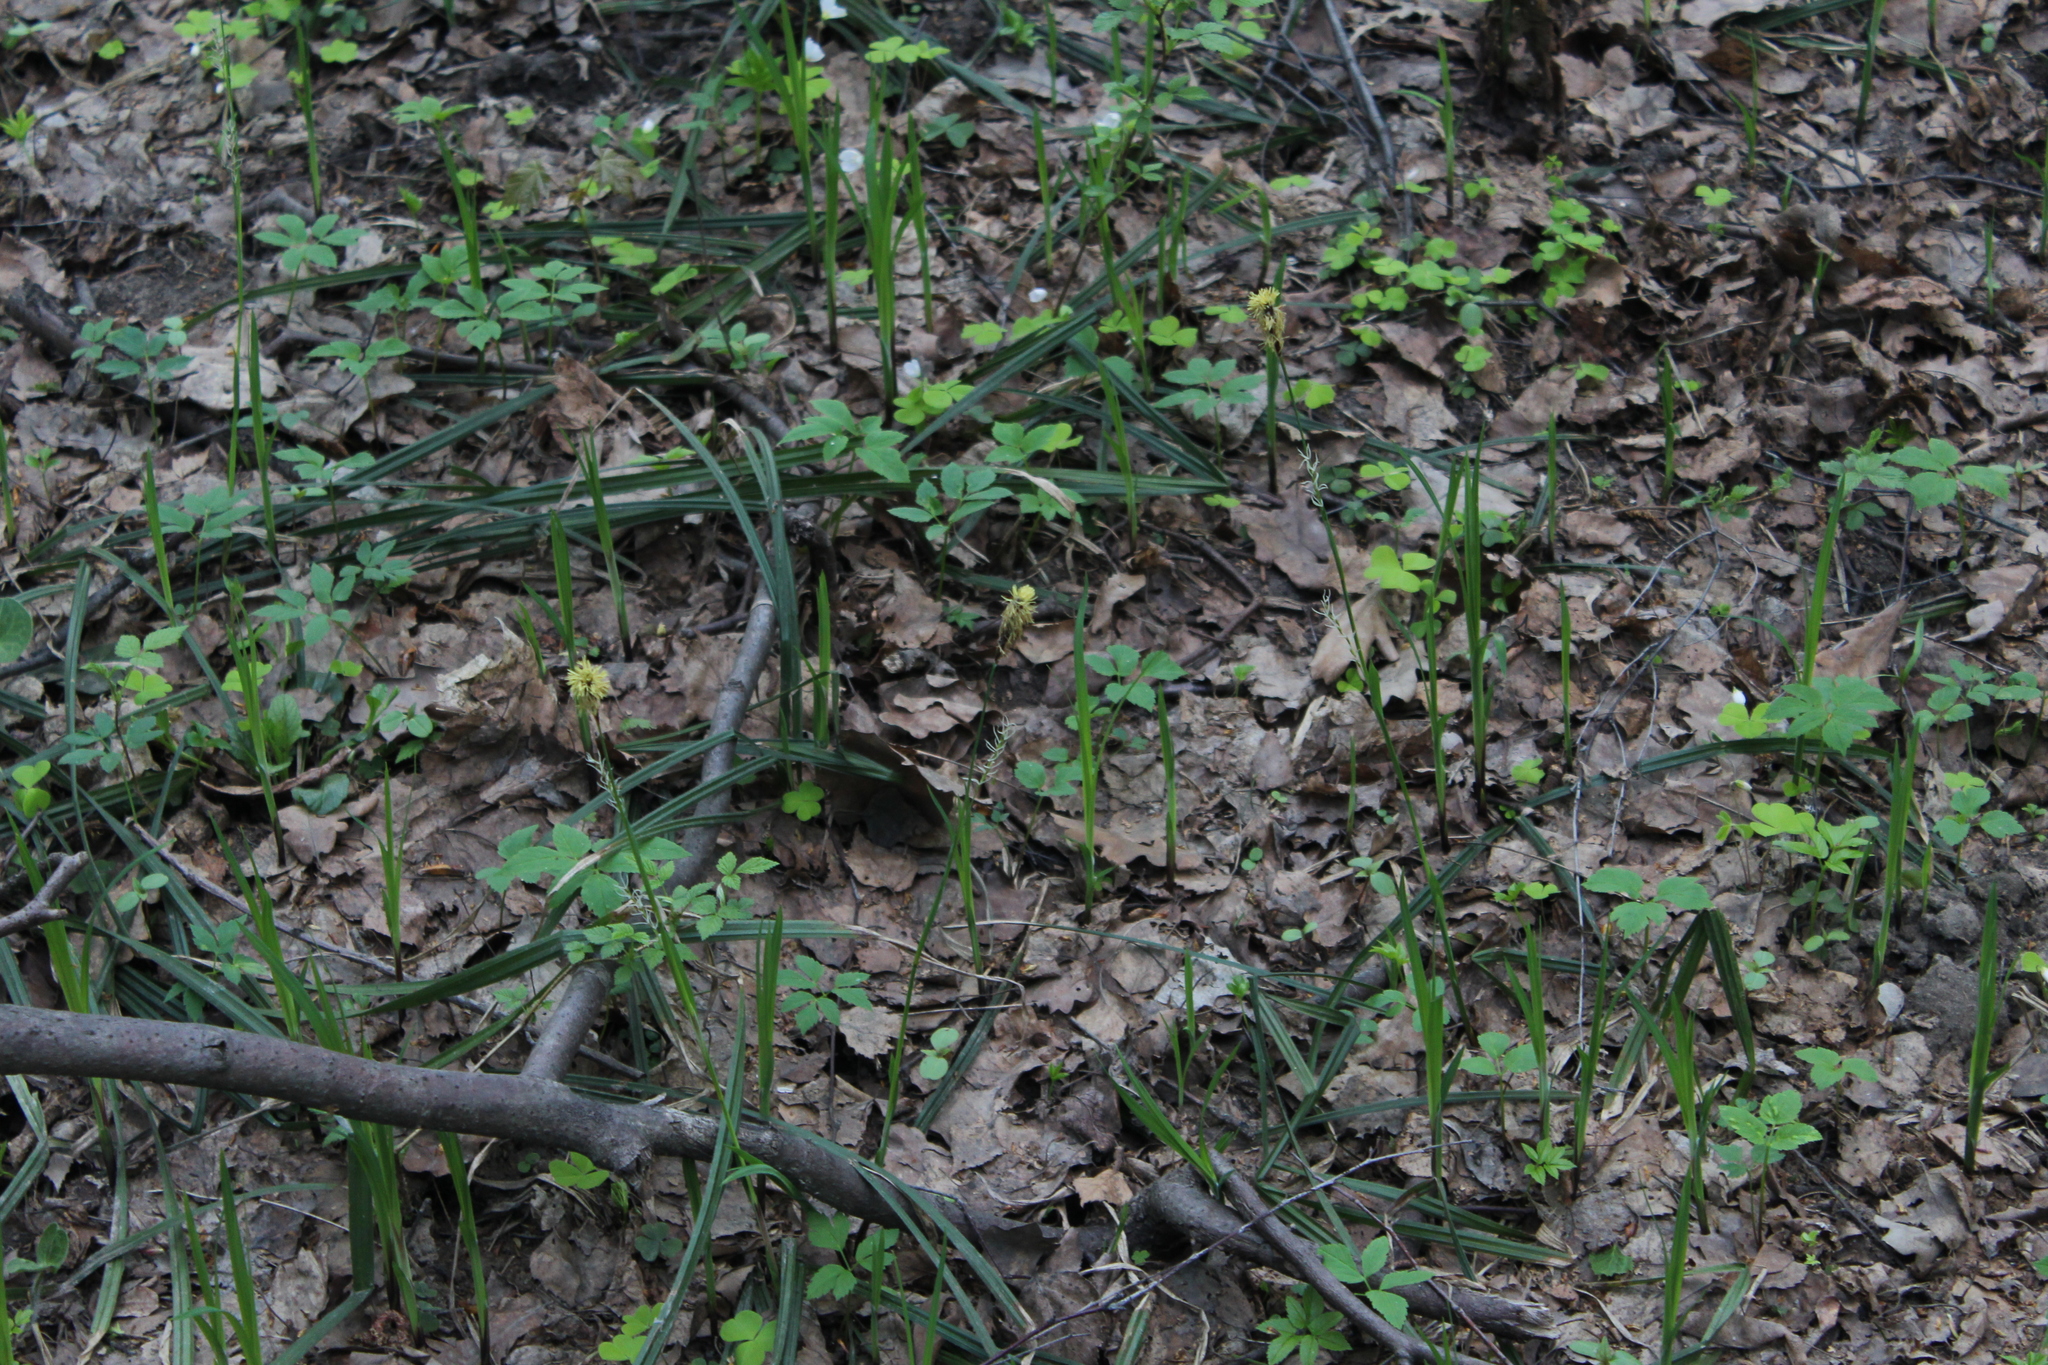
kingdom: Plantae
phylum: Tracheophyta
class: Liliopsida
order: Poales
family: Cyperaceae
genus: Carex
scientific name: Carex pilosa
